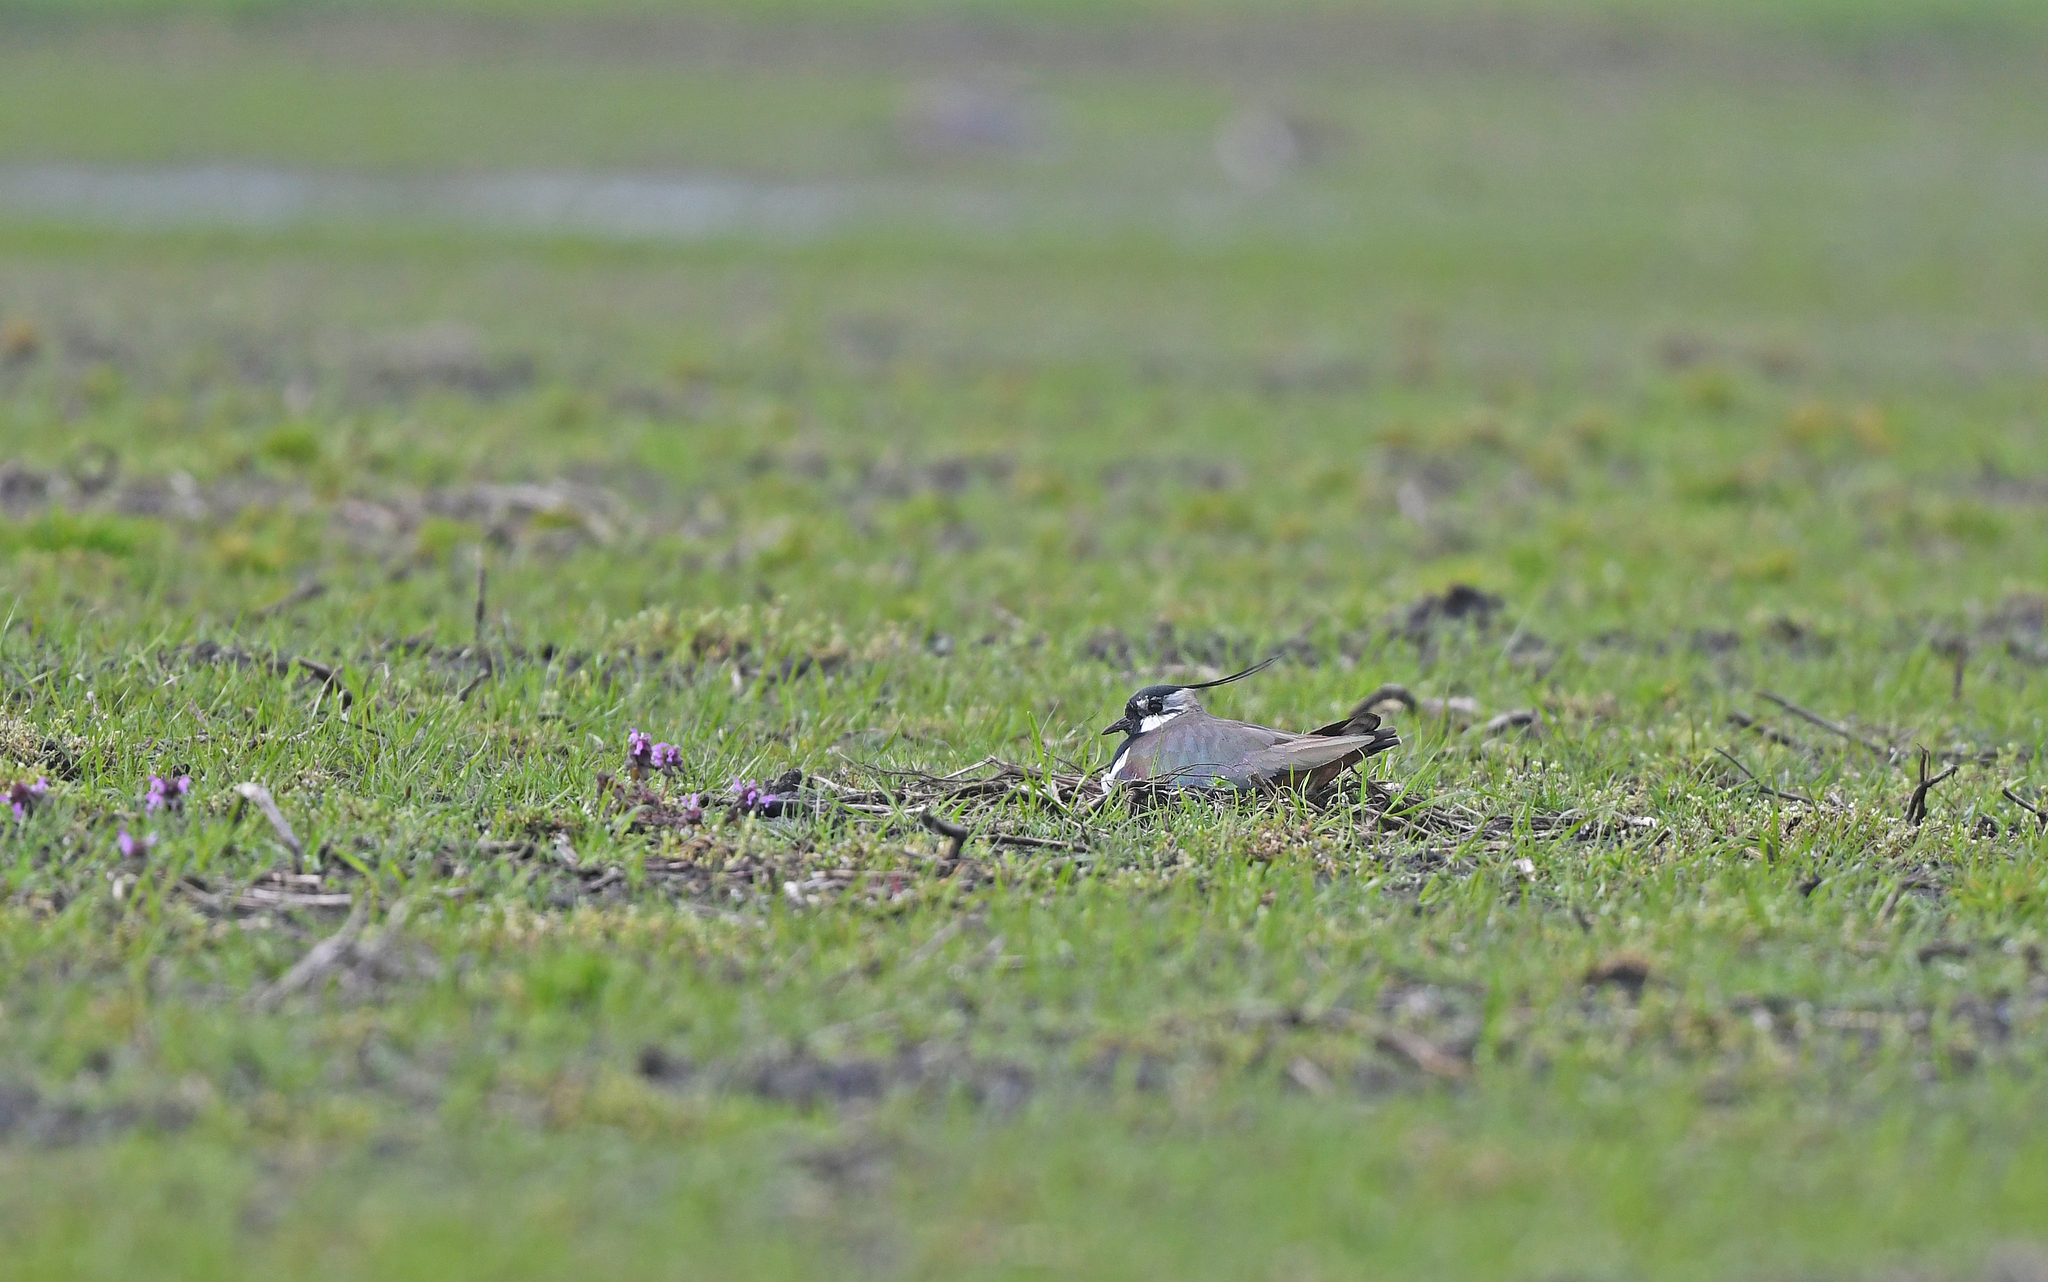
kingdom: Animalia
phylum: Chordata
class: Aves
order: Charadriiformes
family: Charadriidae
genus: Vanellus
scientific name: Vanellus vanellus
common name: Northern lapwing
